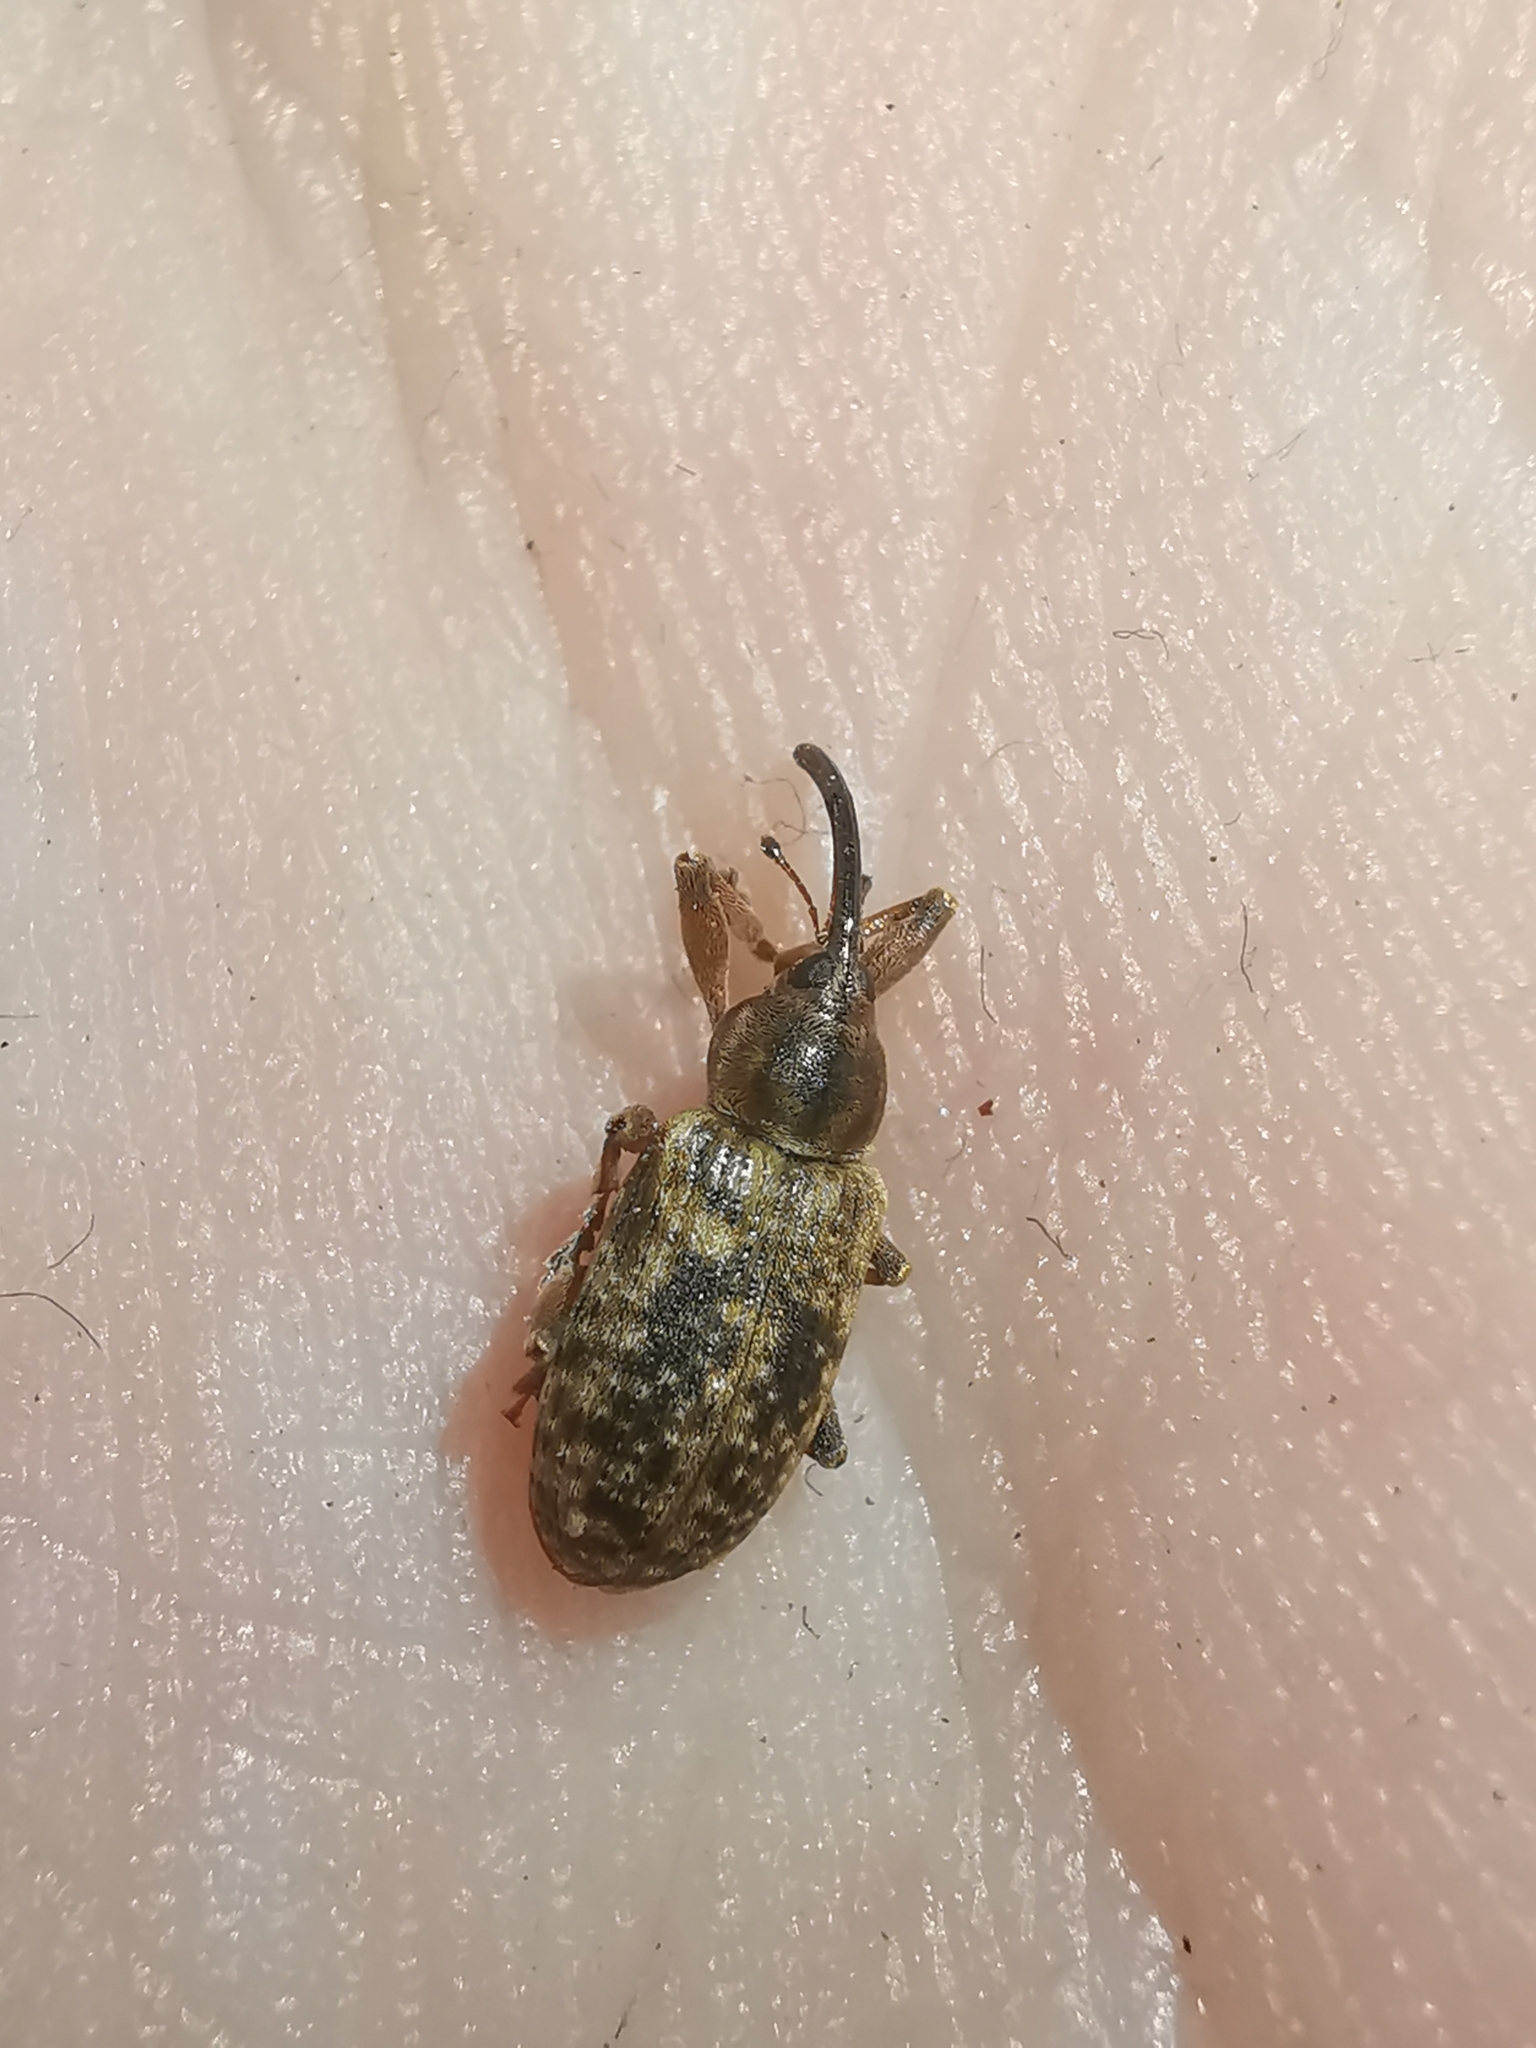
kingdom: Animalia
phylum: Arthropoda
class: Insecta
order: Coleoptera
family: Curculionidae
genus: Dorytomus
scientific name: Dorytomus longimanus
